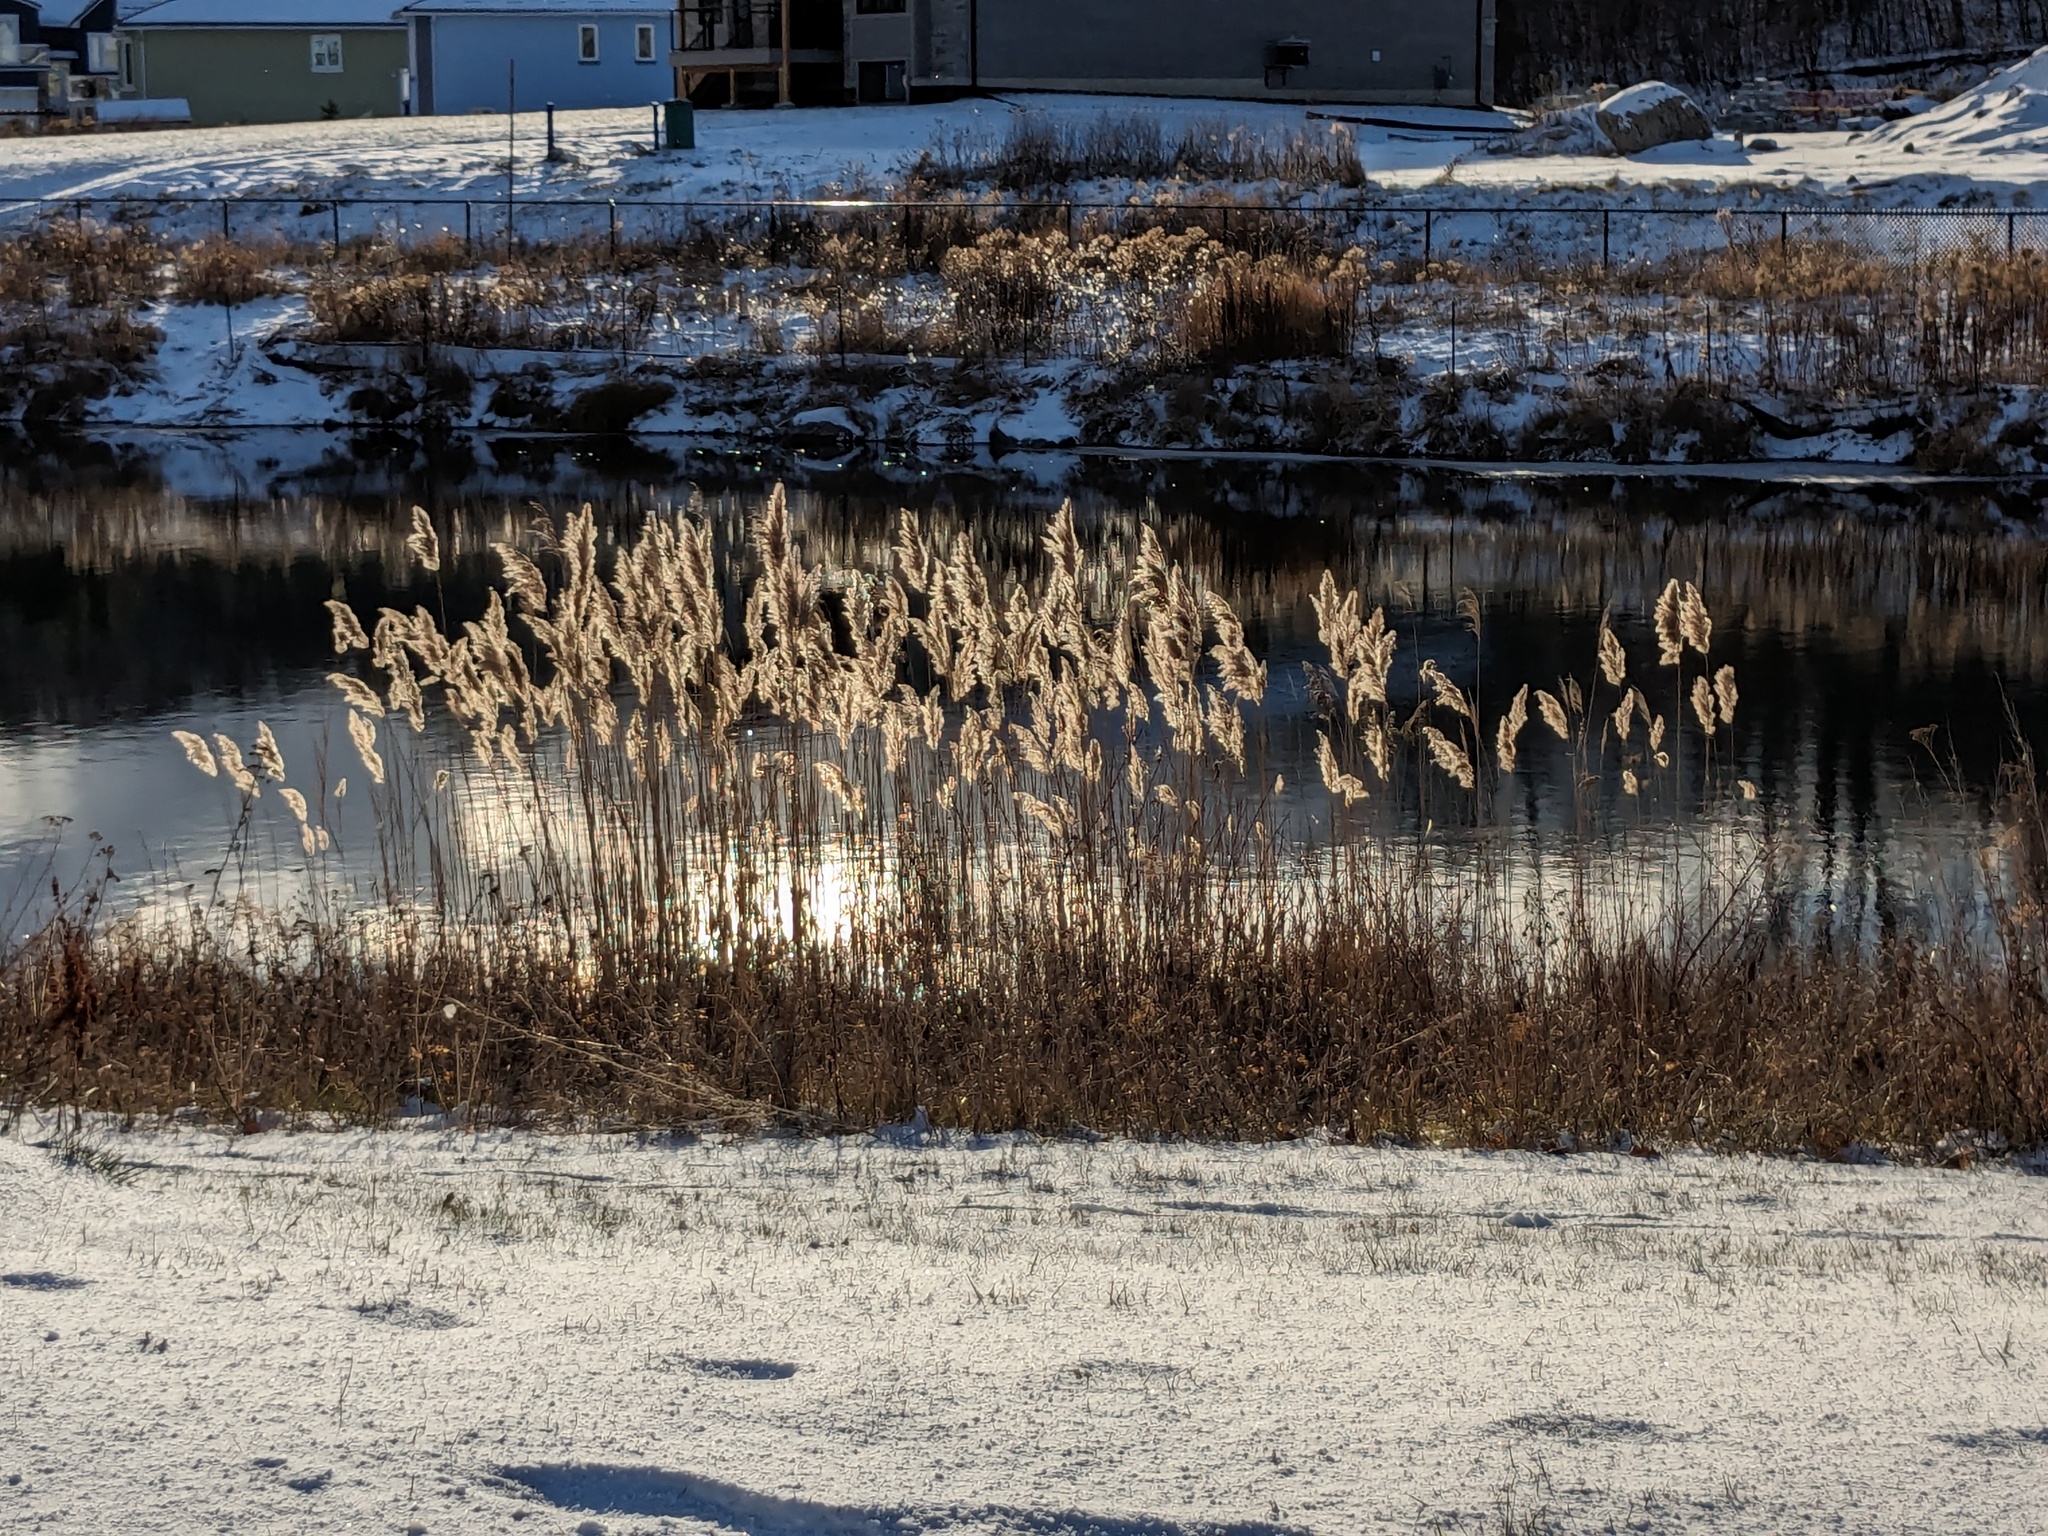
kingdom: Plantae
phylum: Tracheophyta
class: Liliopsida
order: Poales
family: Poaceae
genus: Phragmites
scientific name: Phragmites australis
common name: Common reed
